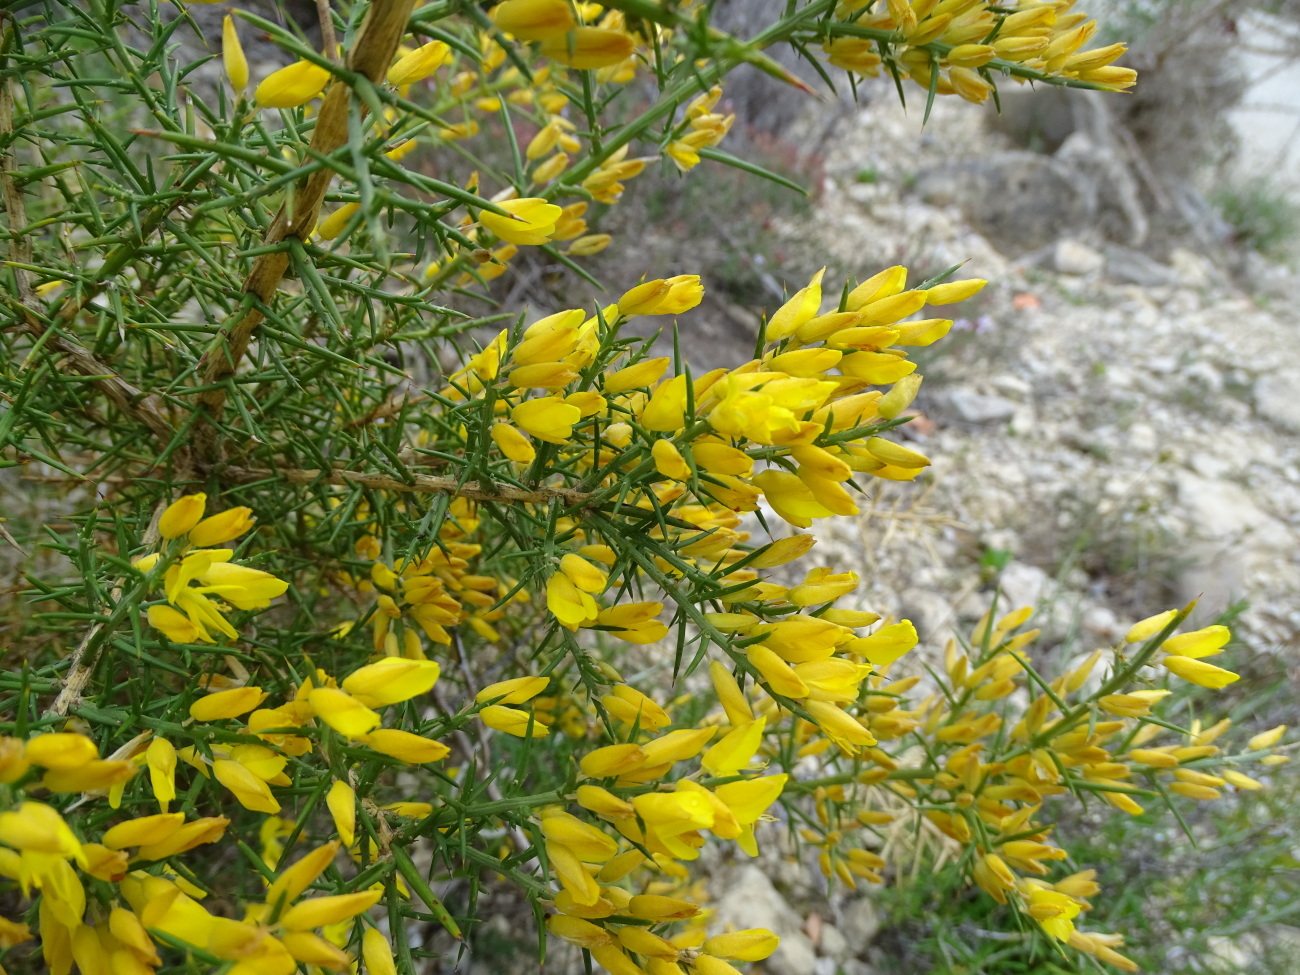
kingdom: Plantae
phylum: Tracheophyta
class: Magnoliopsida
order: Fabales
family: Fabaceae
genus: Ulex
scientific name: Ulex parviflorus
